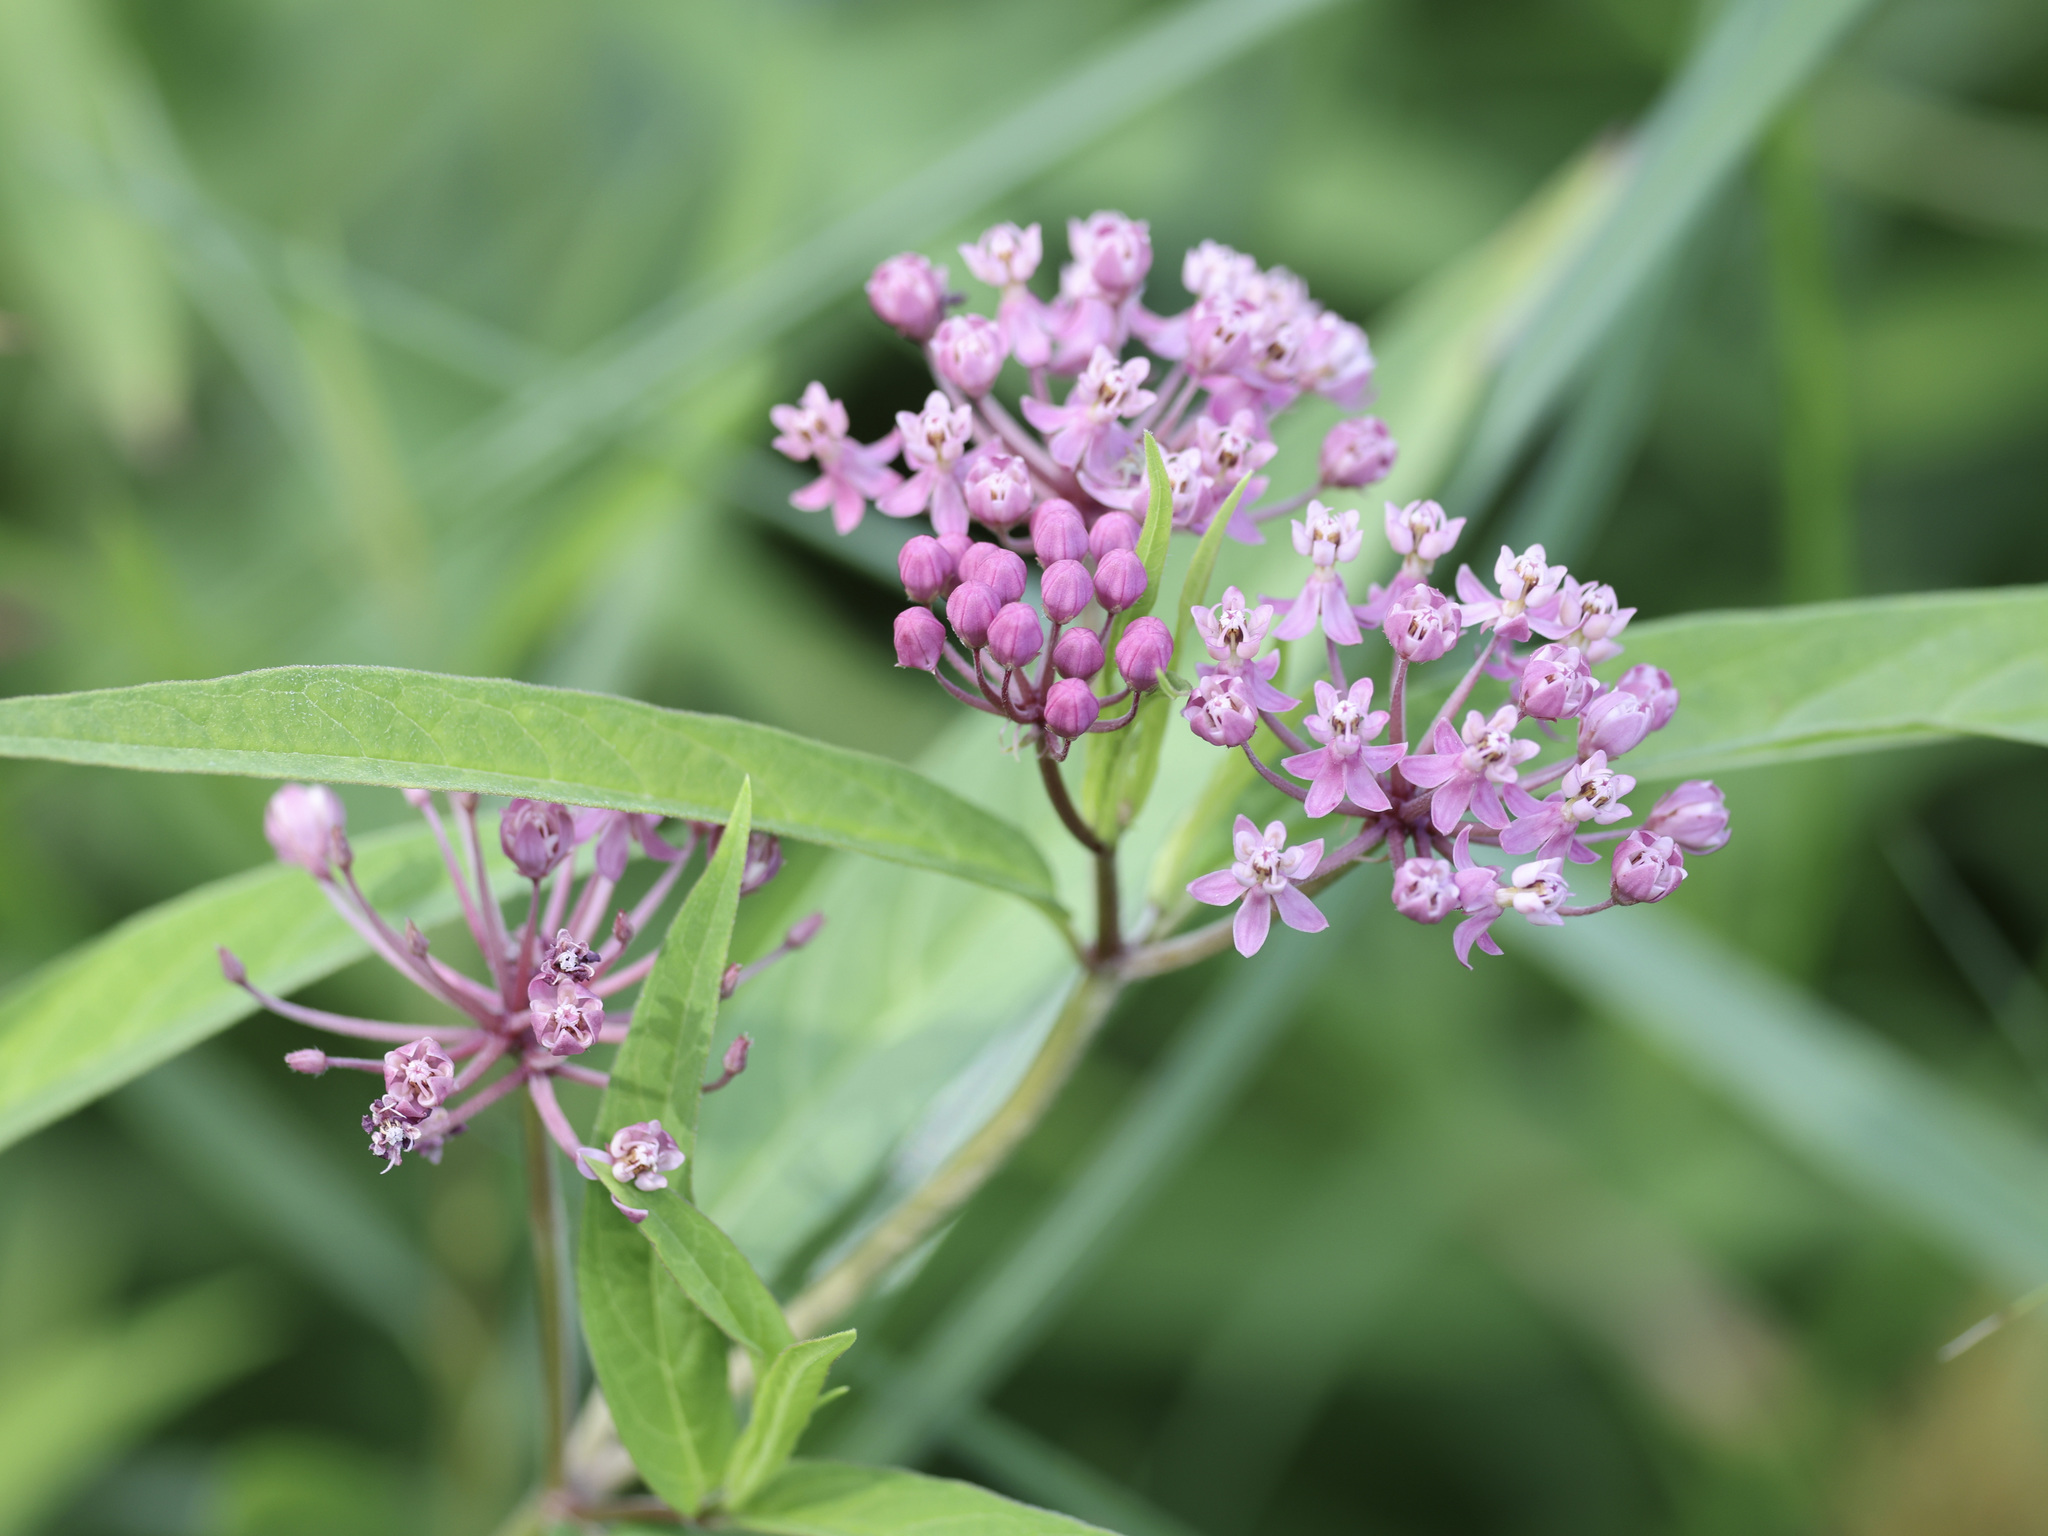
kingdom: Plantae
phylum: Tracheophyta
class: Magnoliopsida
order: Gentianales
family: Apocynaceae
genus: Asclepias
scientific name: Asclepias incarnata
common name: Swamp milkweed
